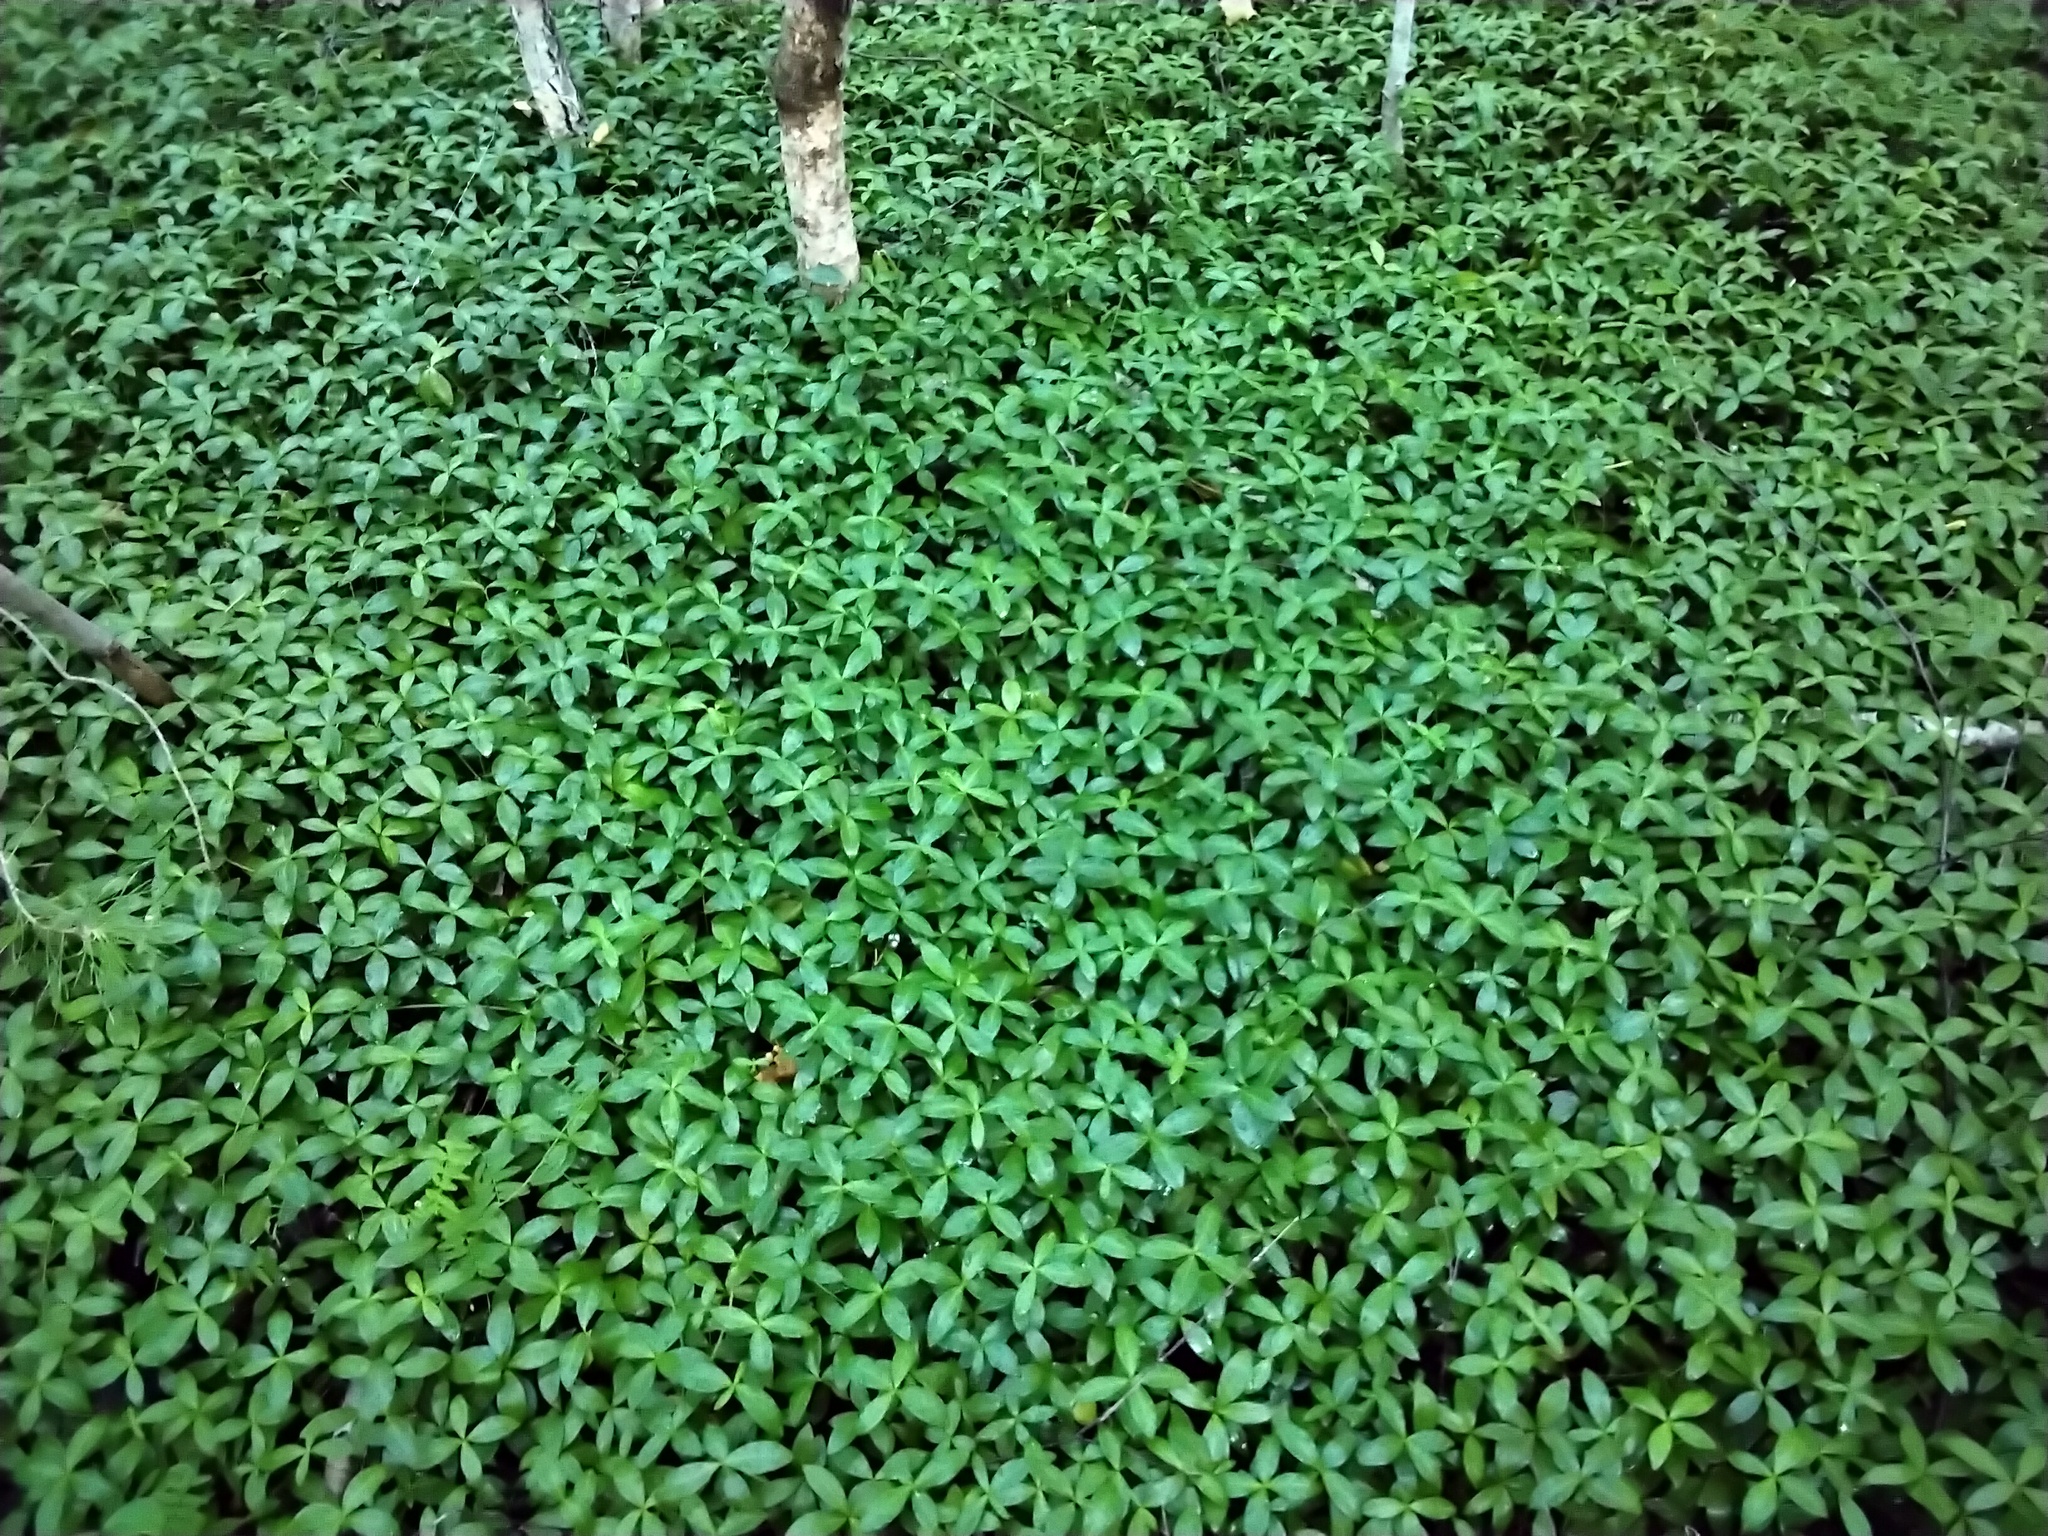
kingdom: Plantae
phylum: Tracheophyta
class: Magnoliopsida
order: Gentianales
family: Apocynaceae
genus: Vinca
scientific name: Vinca minor
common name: Lesser periwinkle
